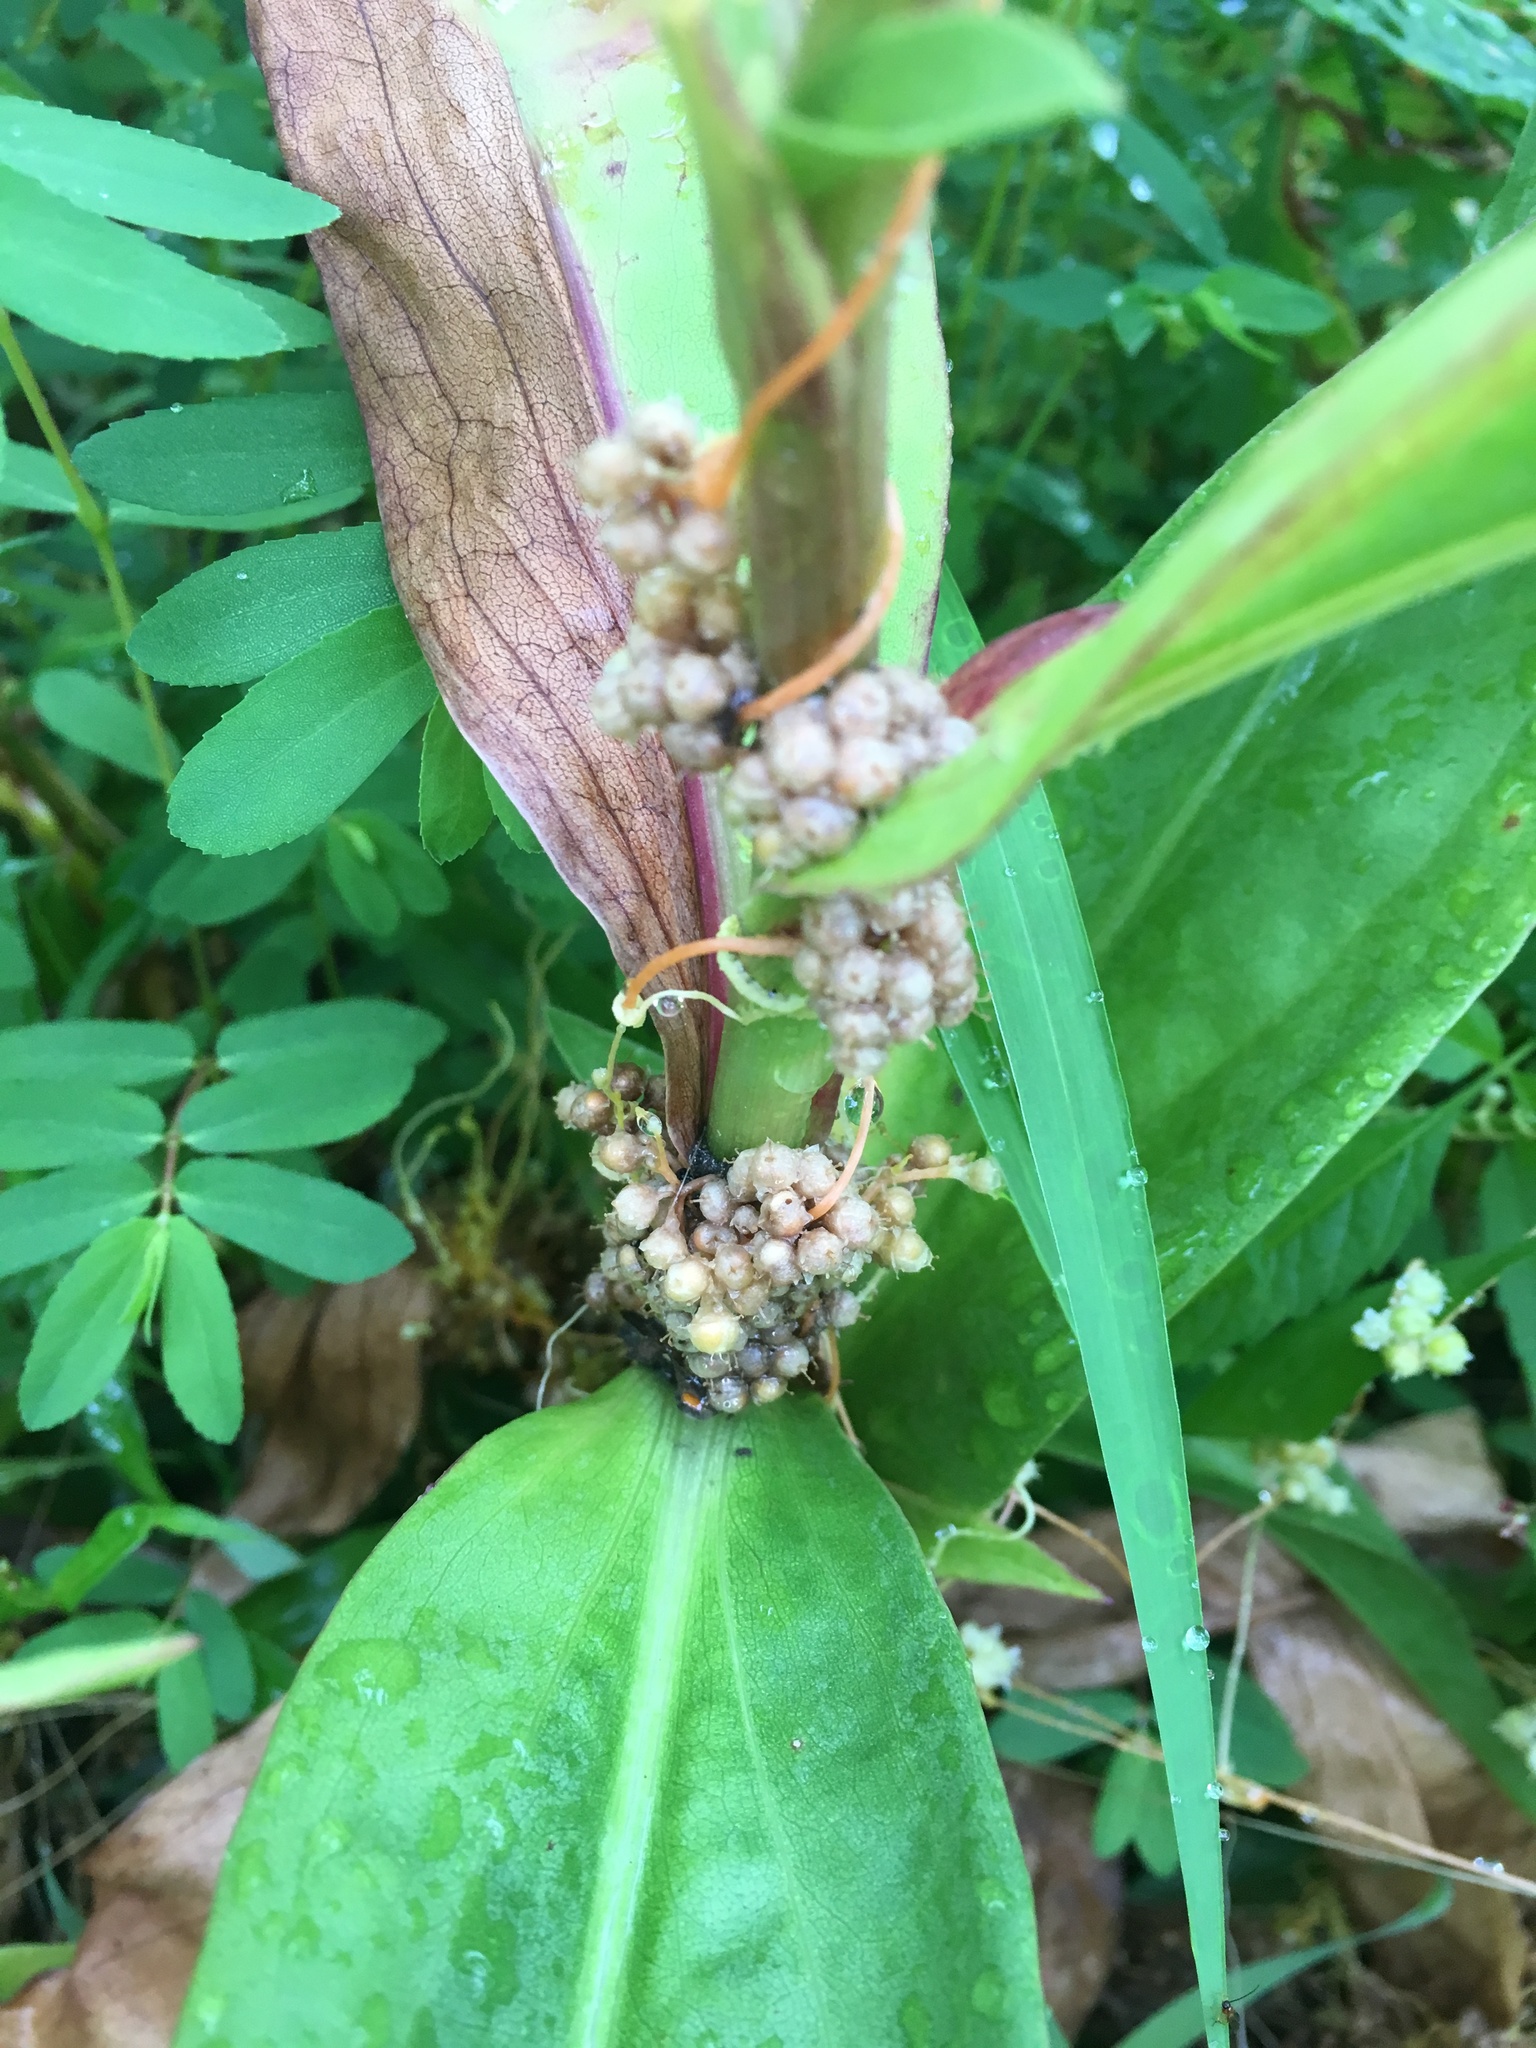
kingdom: Plantae
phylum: Tracheophyta
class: Magnoliopsida
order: Solanales
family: Convolvulaceae
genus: Cuscuta
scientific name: Cuscuta pentagona
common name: Fiveangled dodder
